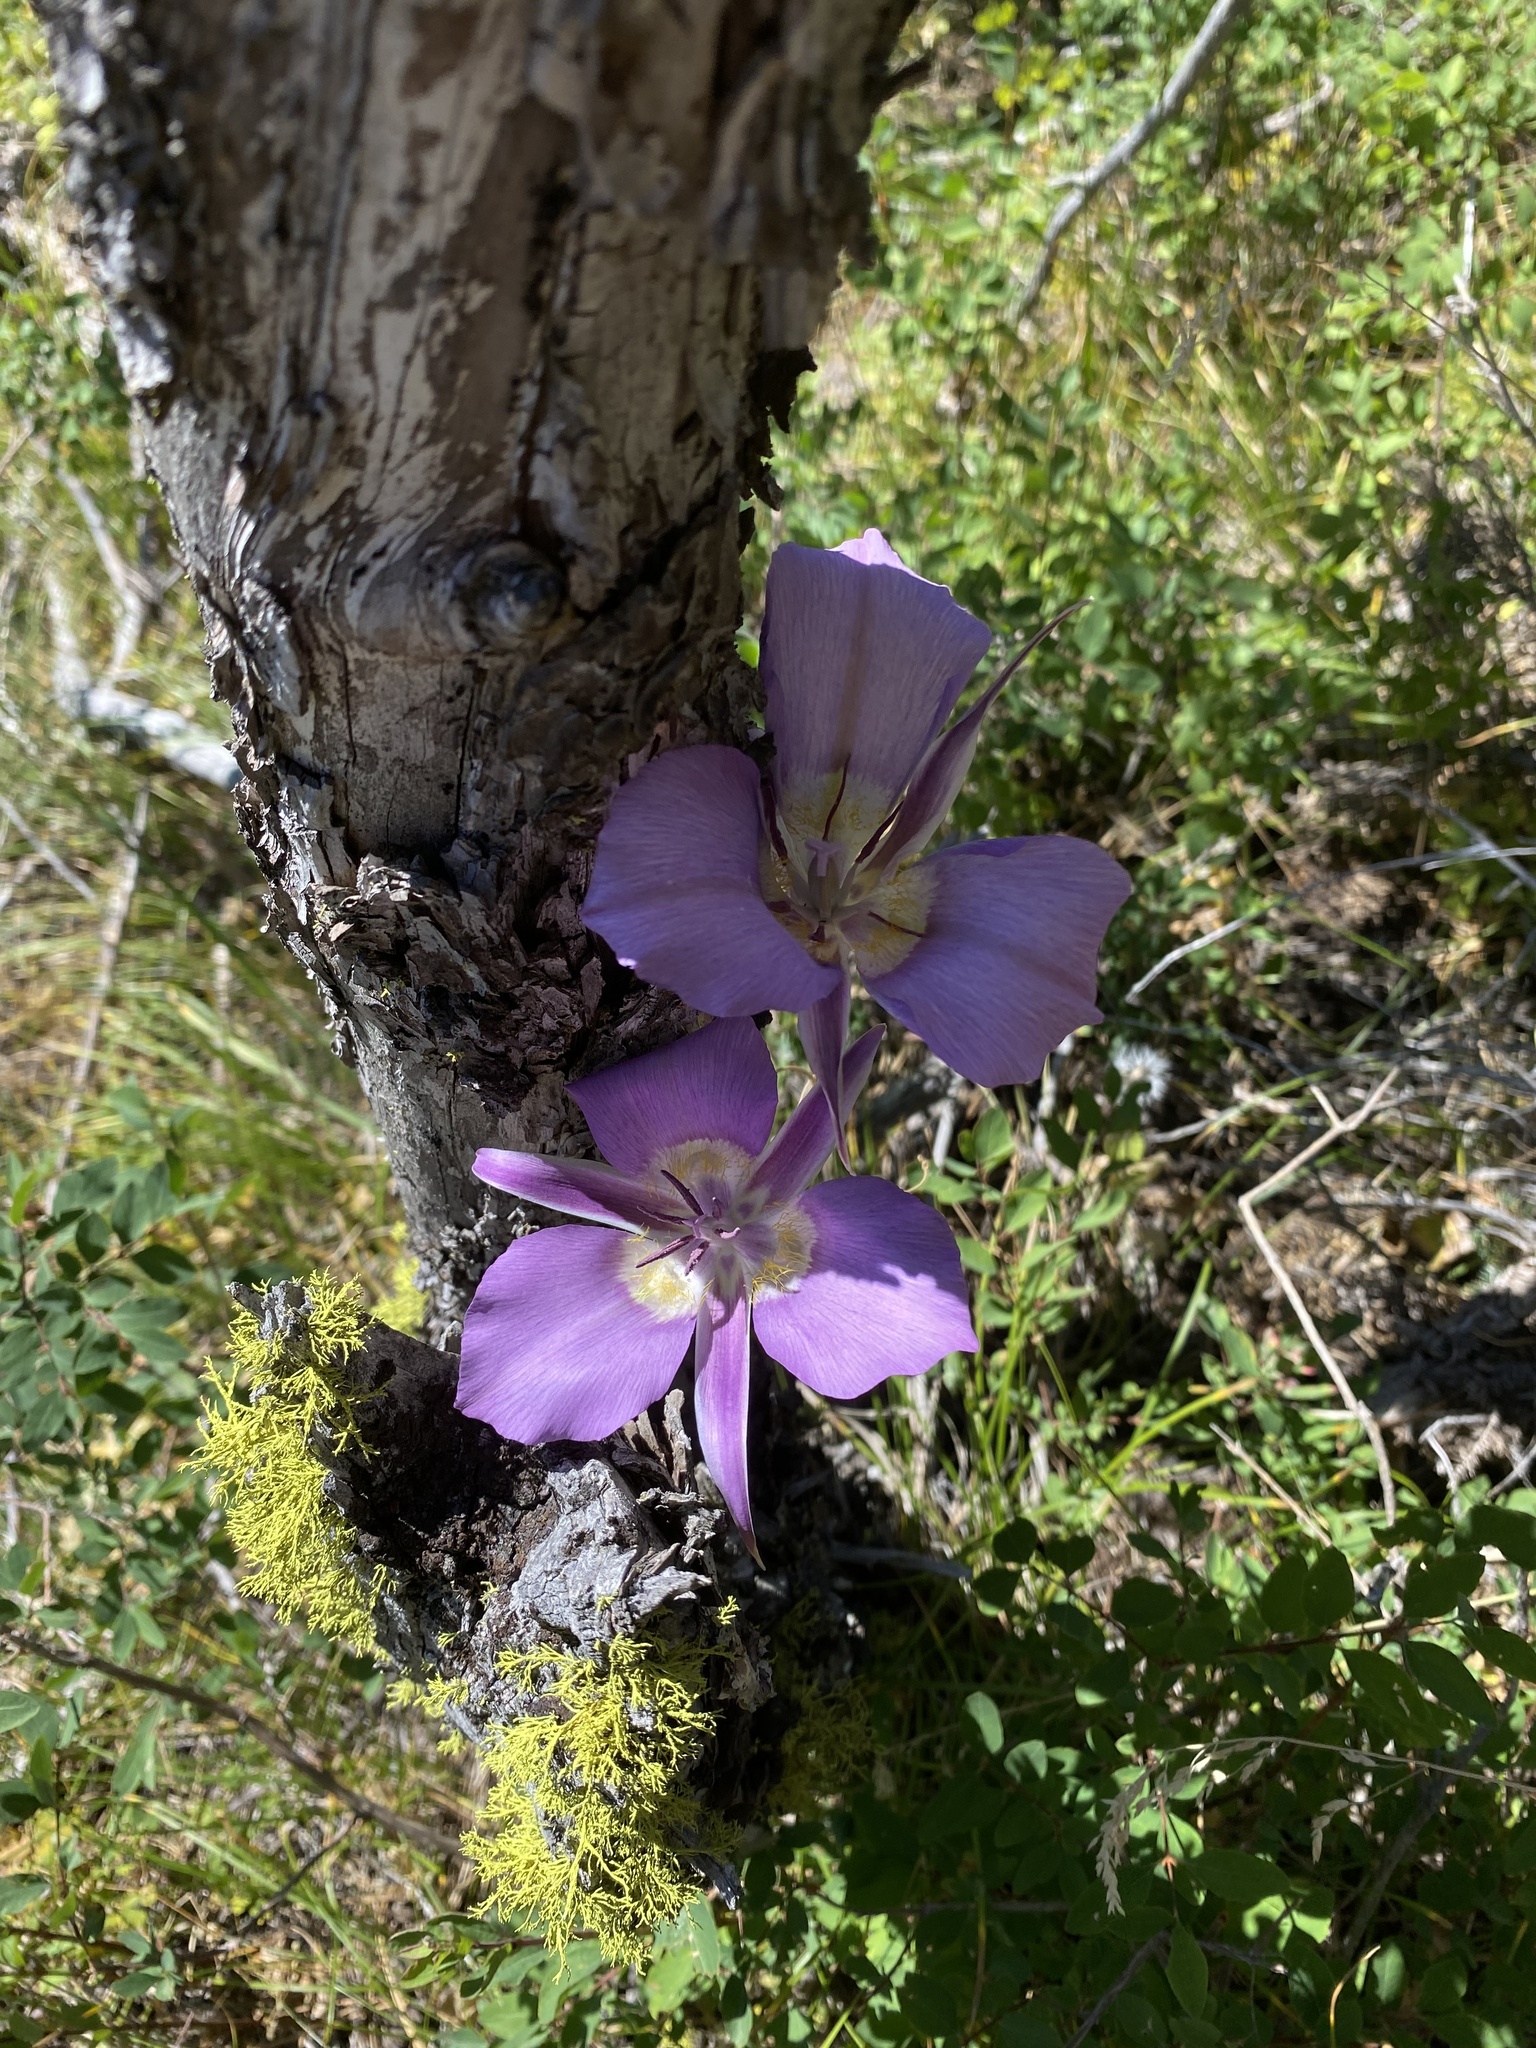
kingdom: Plantae
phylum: Tracheophyta
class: Liliopsida
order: Liliales
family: Liliaceae
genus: Calochortus
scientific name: Calochortus macrocarpus
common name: Green-band mariposa lily
